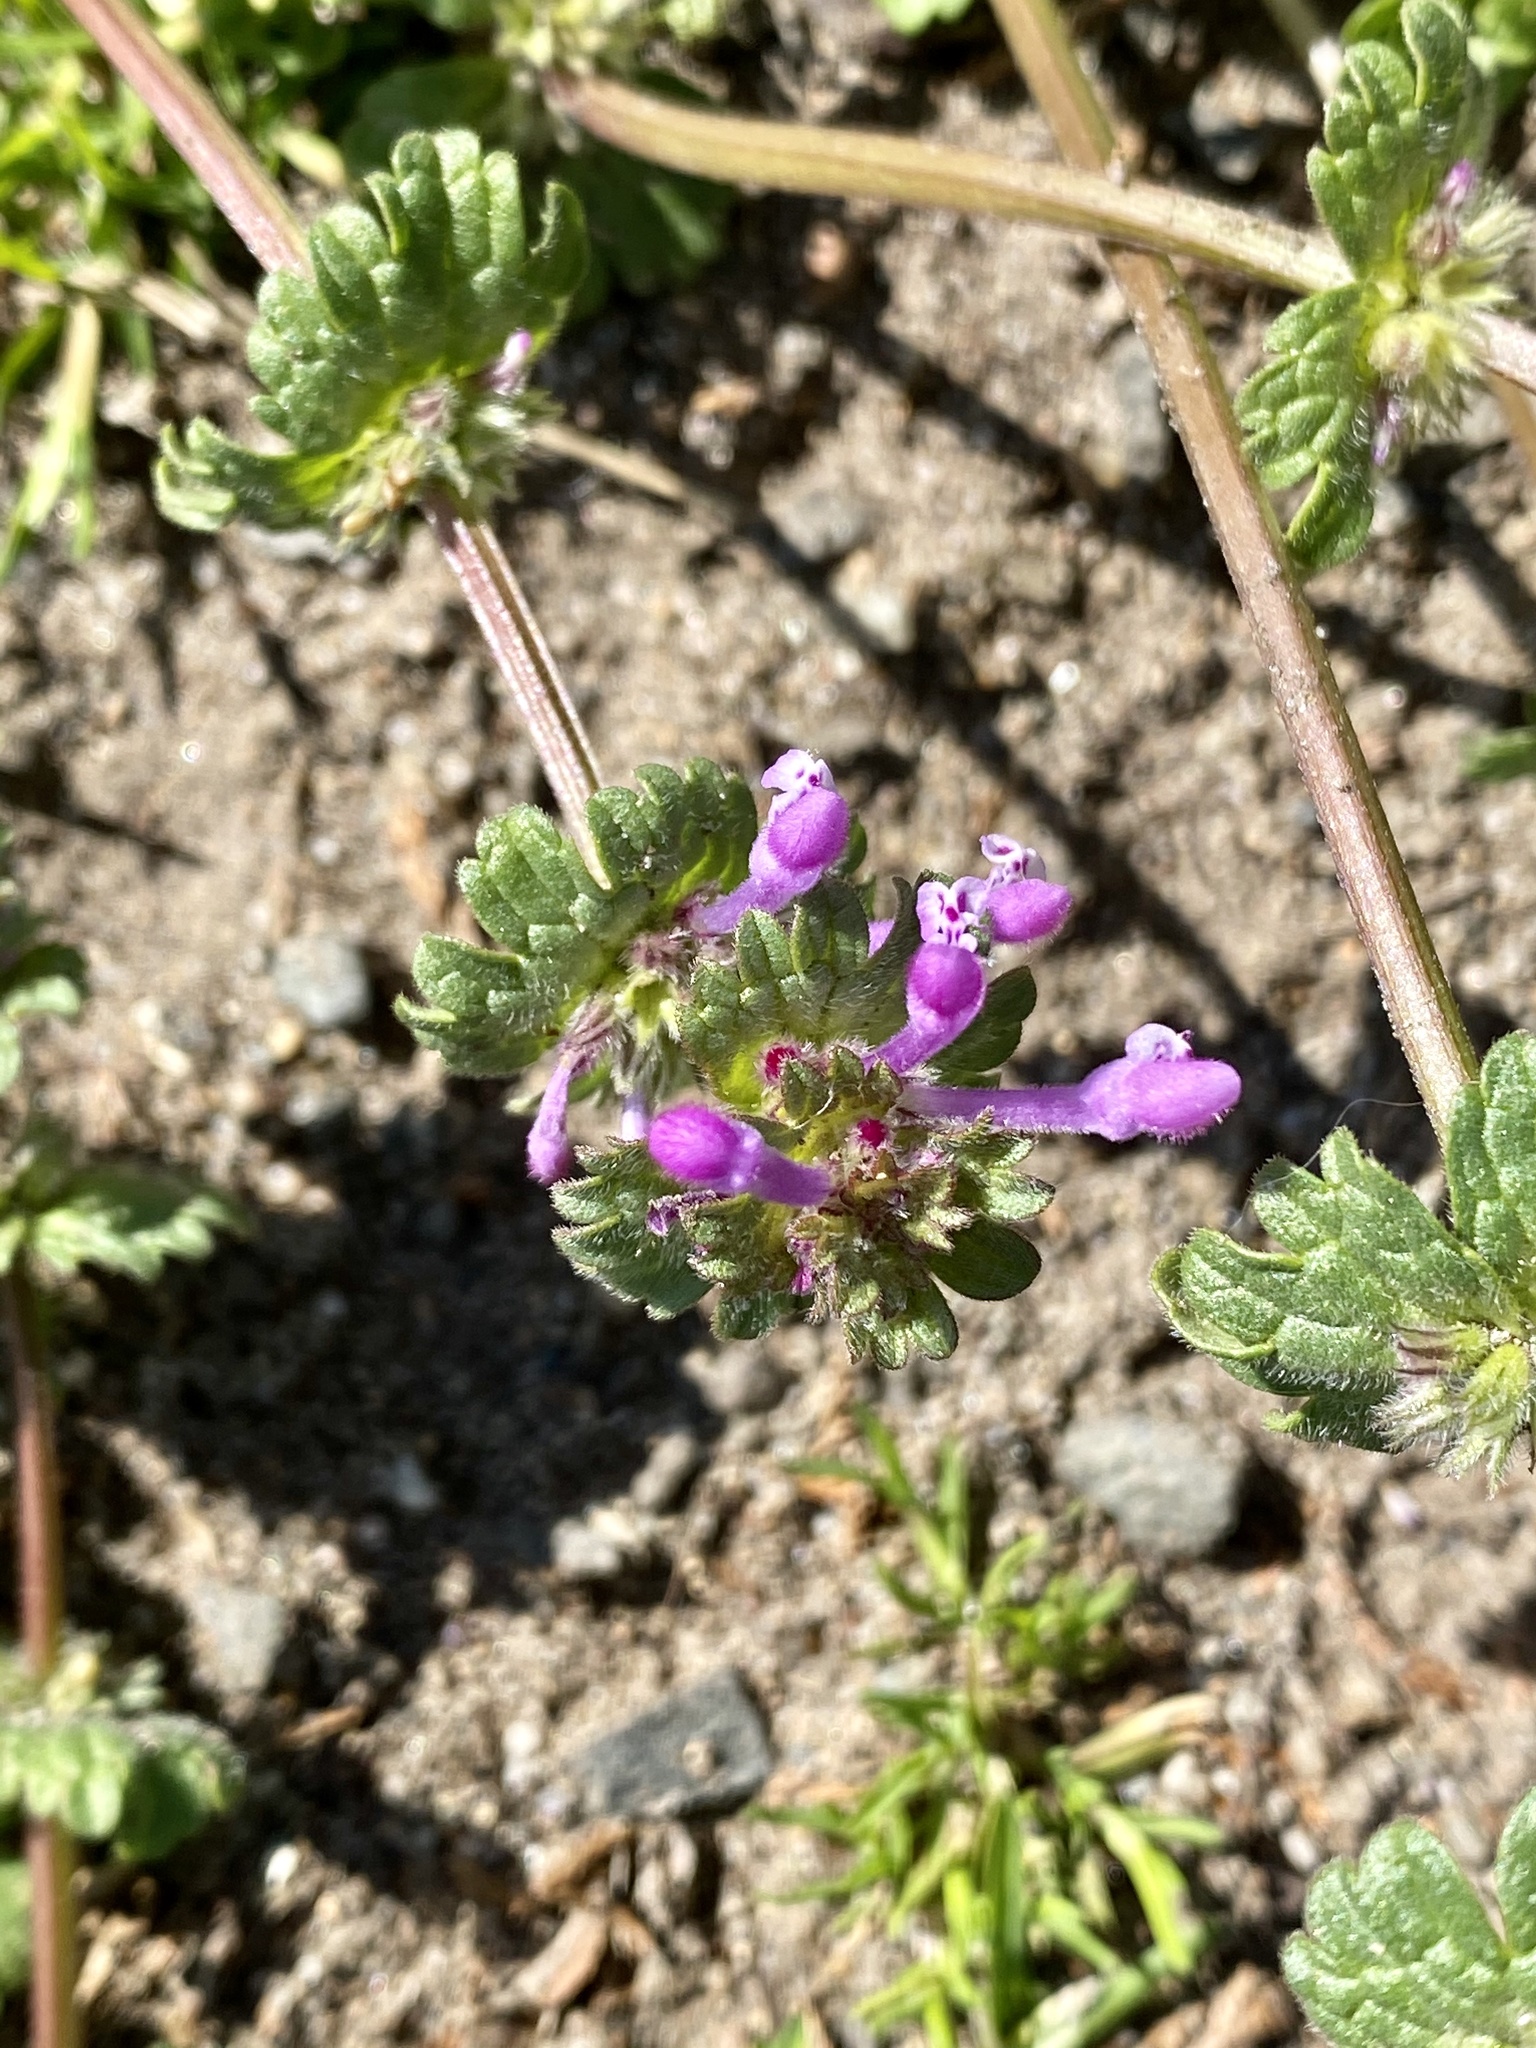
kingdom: Plantae
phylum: Tracheophyta
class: Magnoliopsida
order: Lamiales
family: Lamiaceae
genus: Lamium
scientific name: Lamium amplexicaule
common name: Henbit dead-nettle
